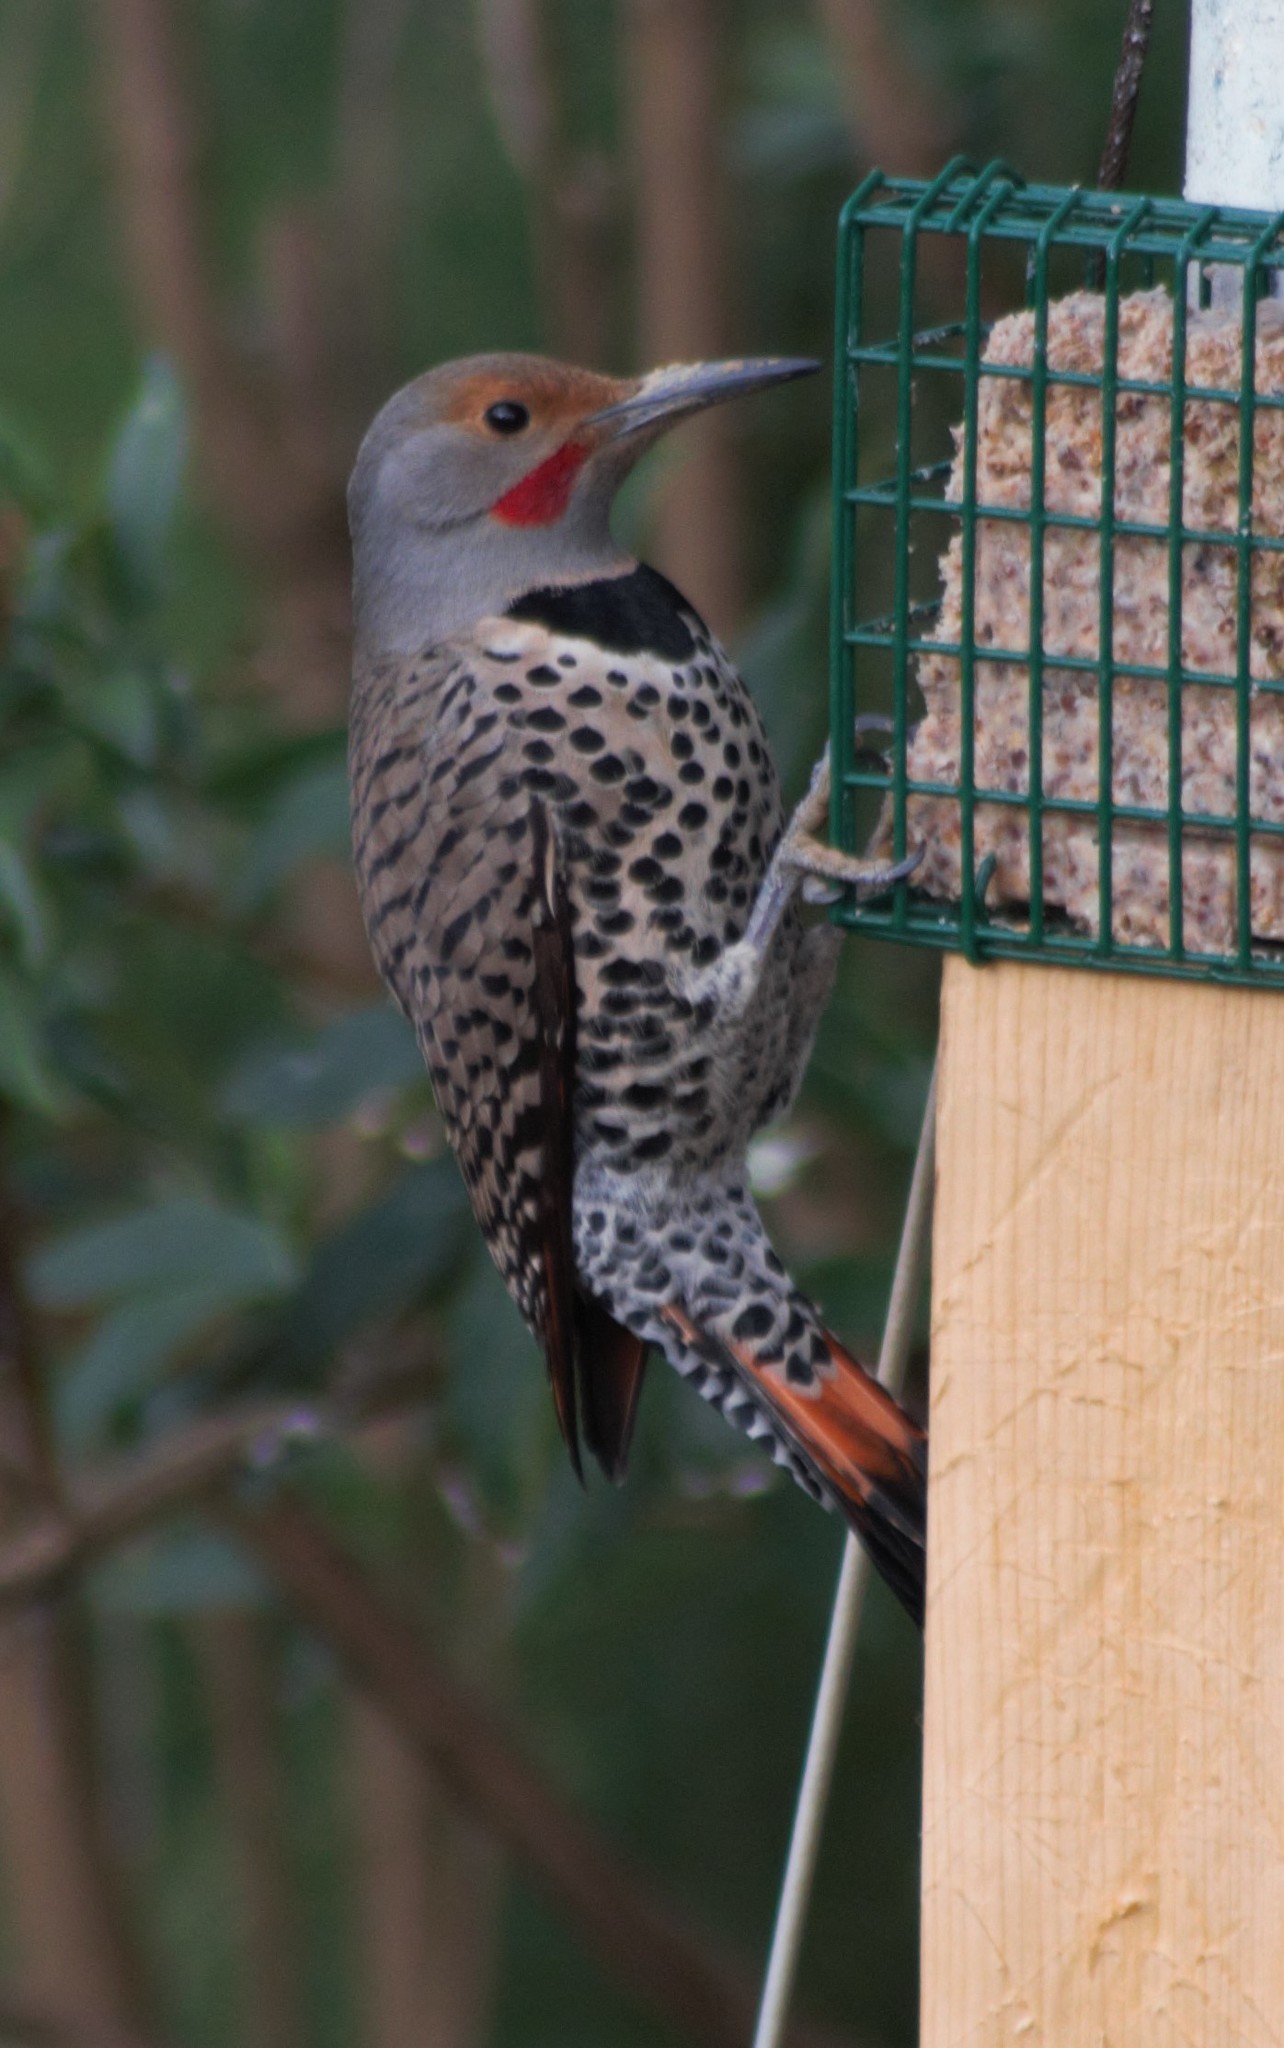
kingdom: Animalia
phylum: Chordata
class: Aves
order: Piciformes
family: Picidae
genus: Colaptes
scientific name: Colaptes auratus
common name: Northern flicker
